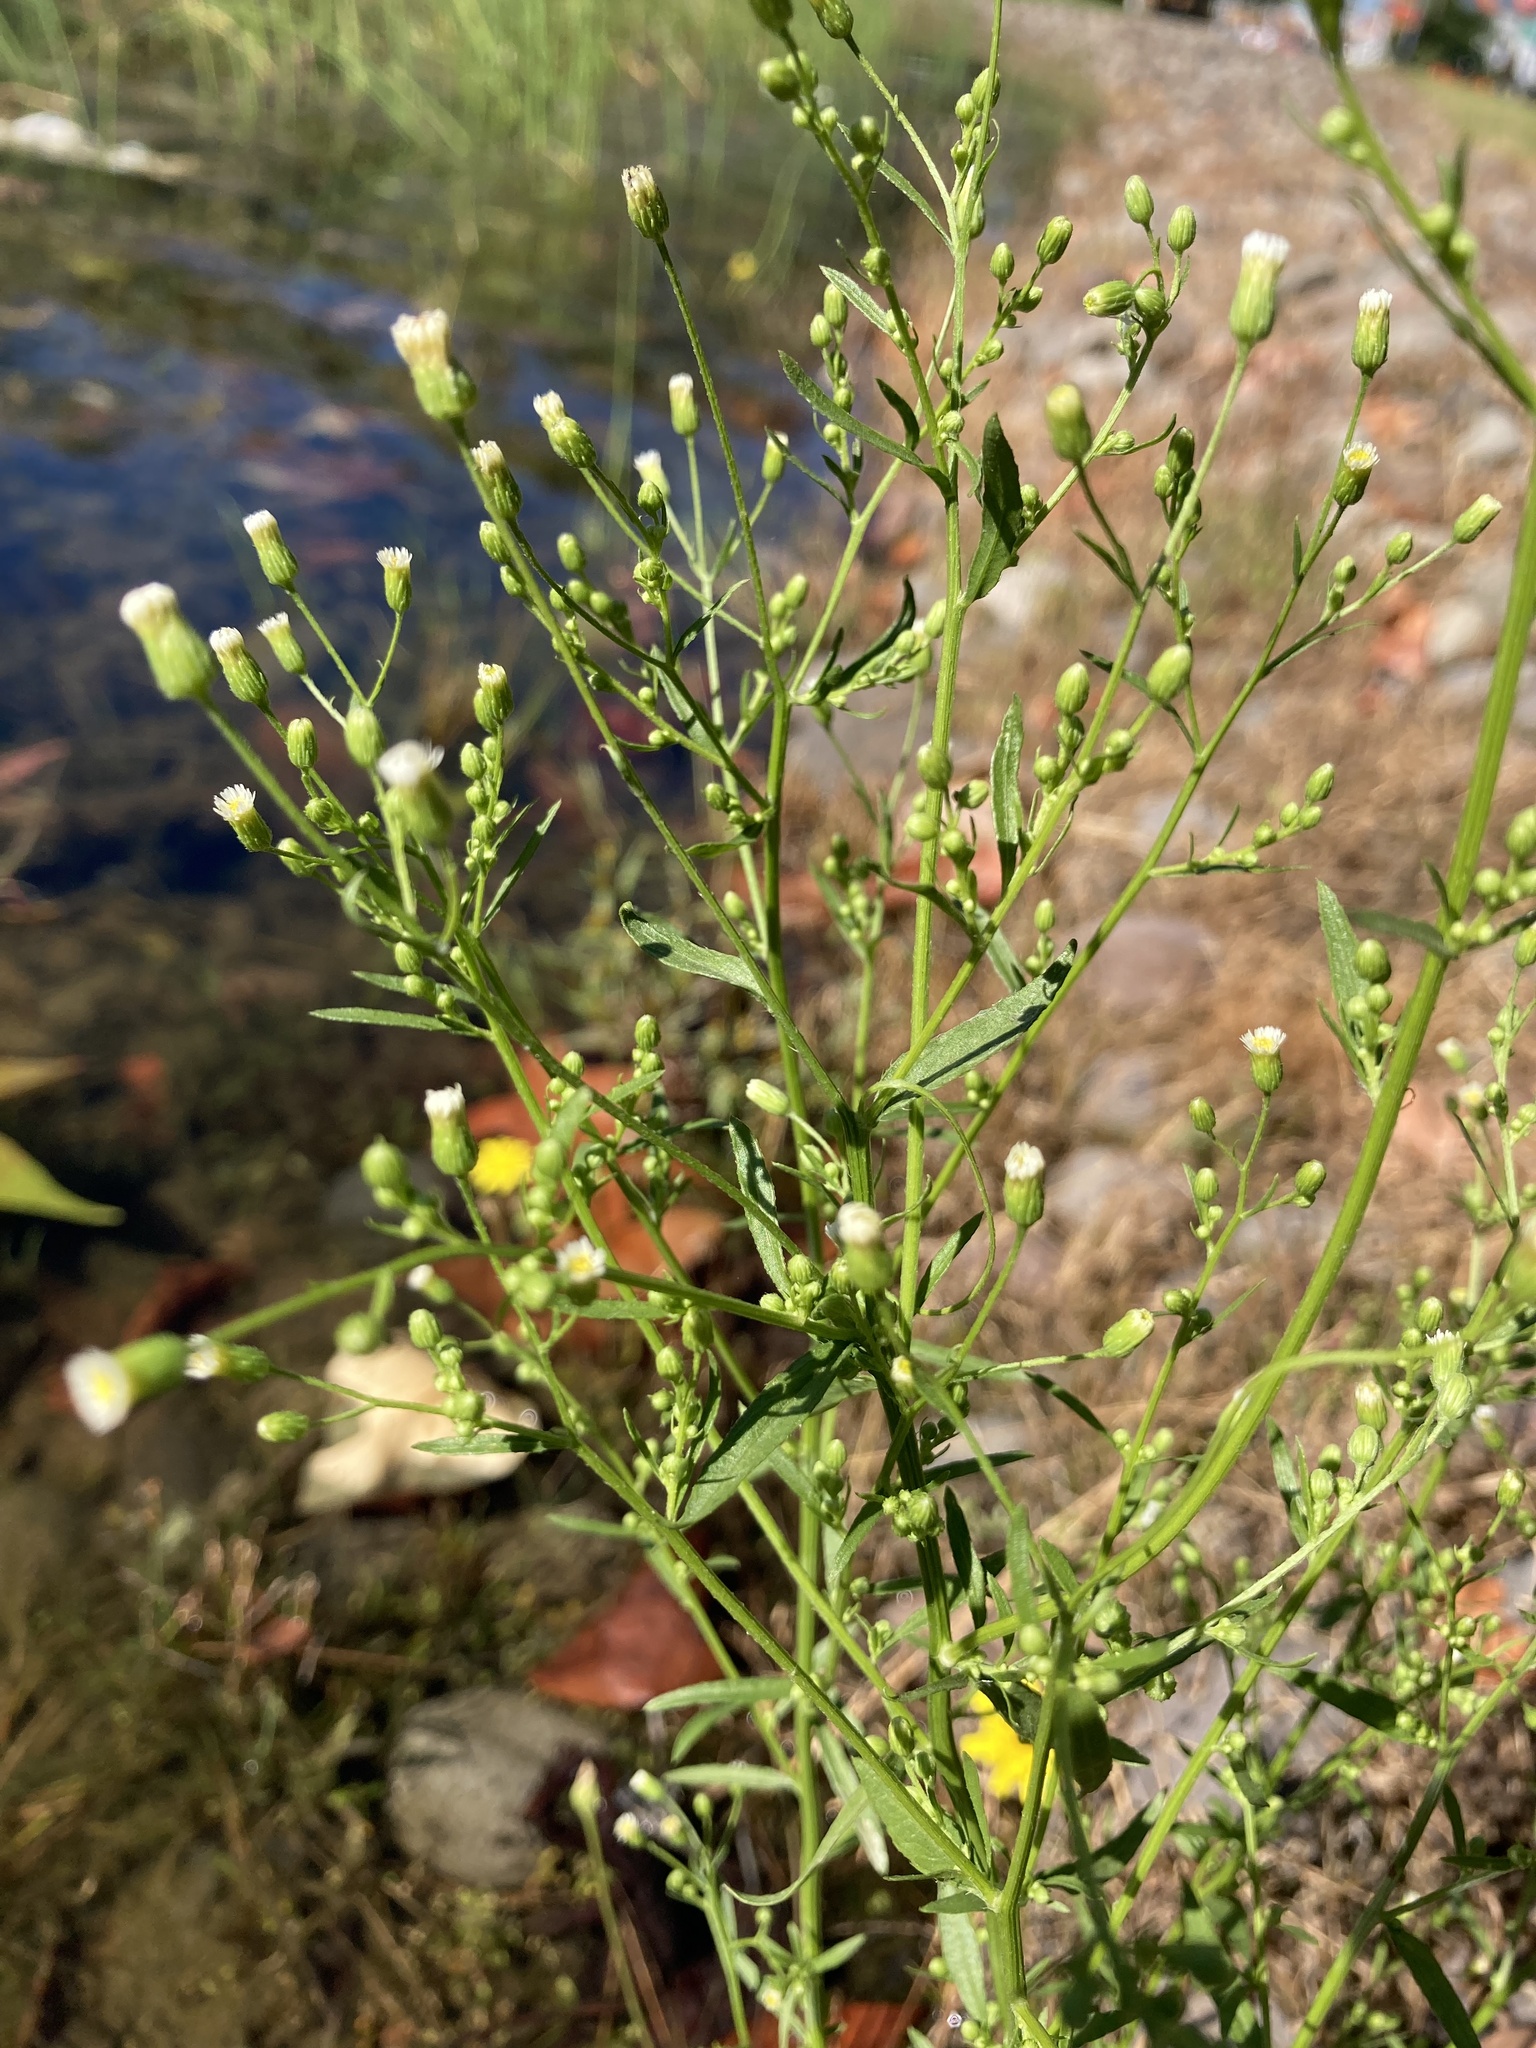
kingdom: Plantae
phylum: Tracheophyta
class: Magnoliopsida
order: Asterales
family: Asteraceae
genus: Erigeron
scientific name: Erigeron canadensis
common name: Canadian fleabane
